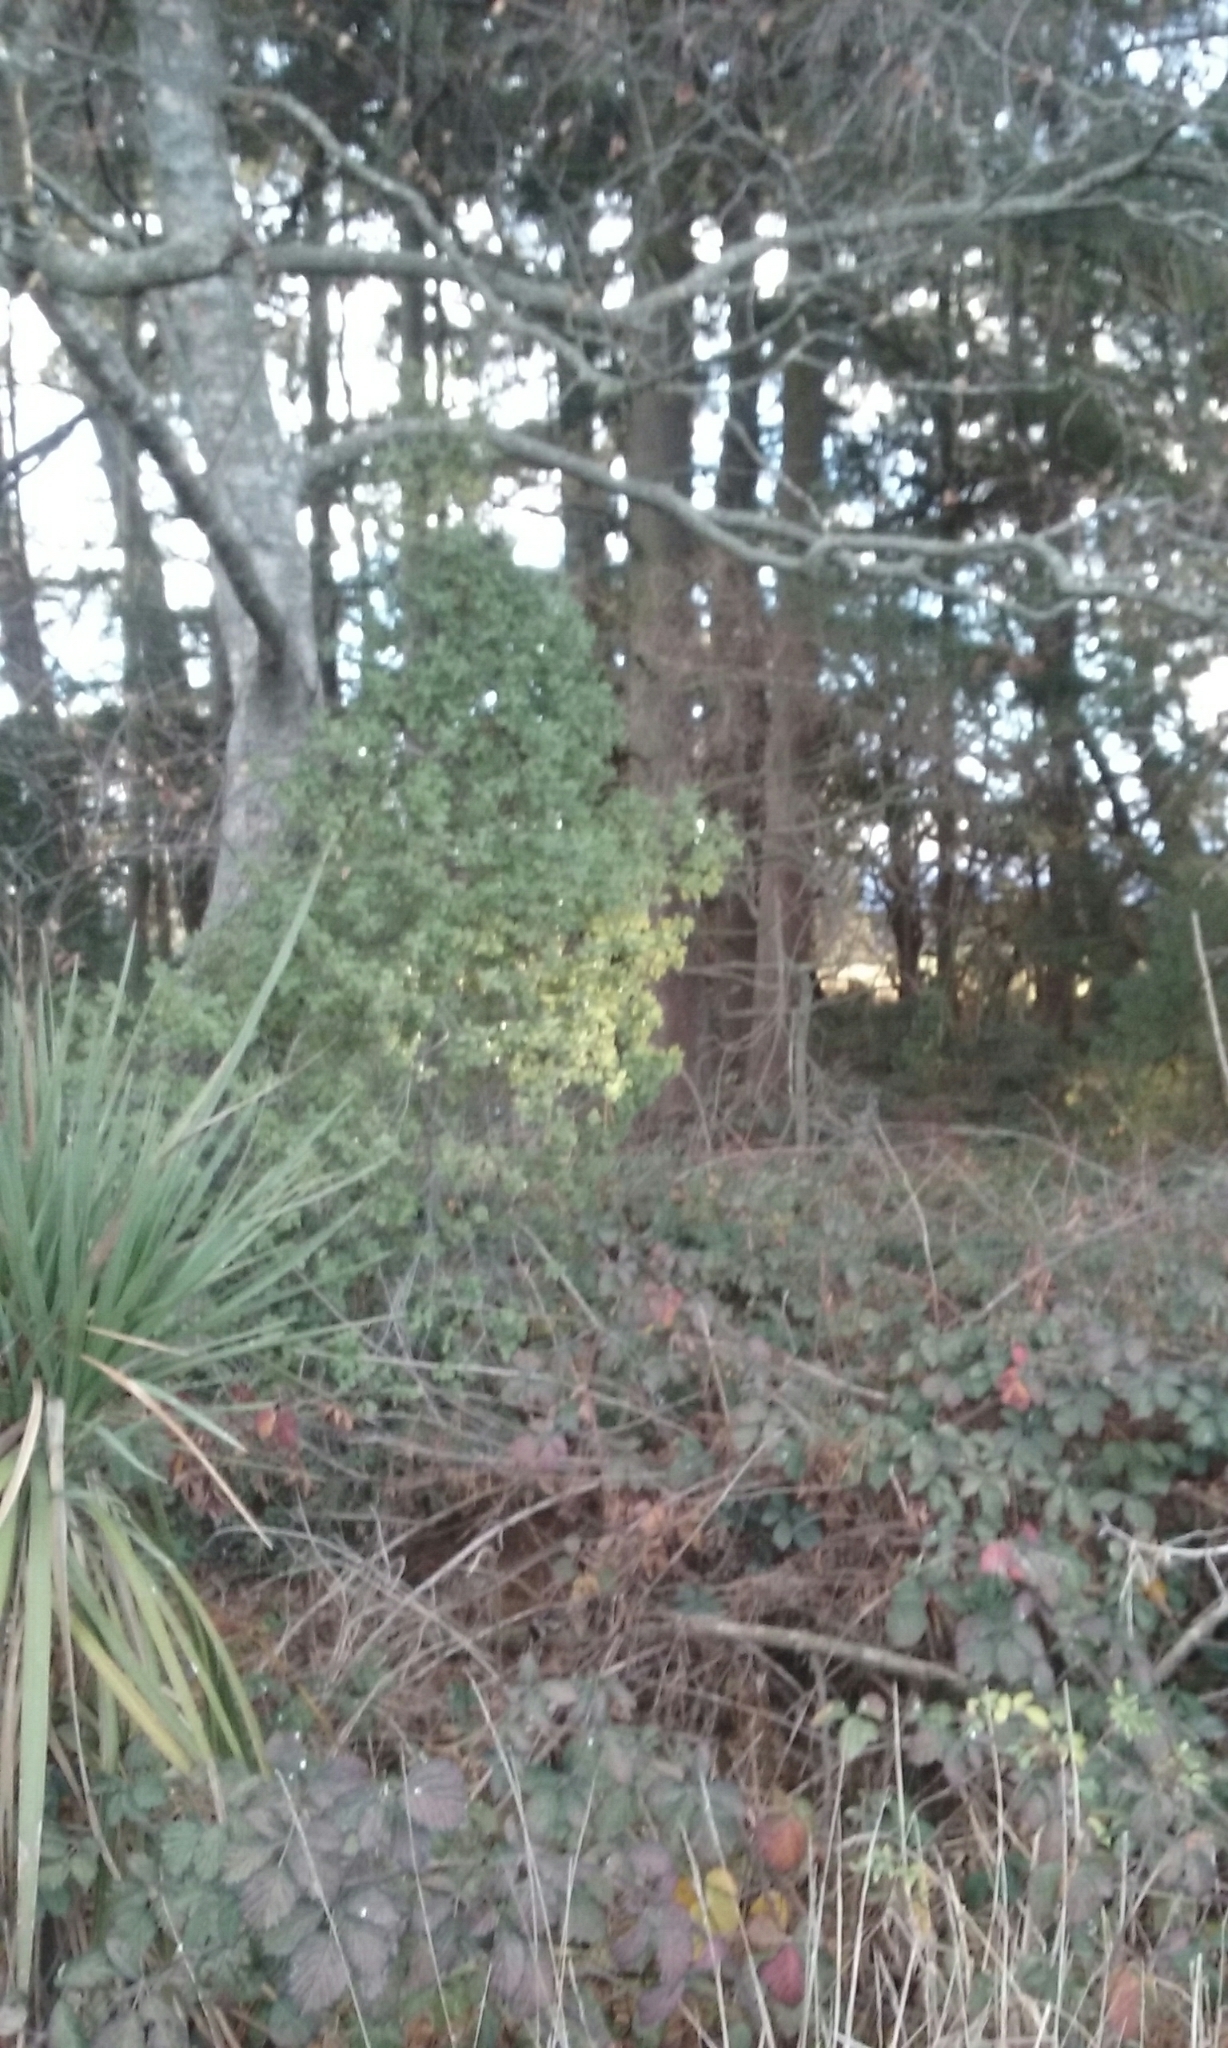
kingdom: Plantae
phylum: Tracheophyta
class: Magnoliopsida
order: Apiales
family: Pittosporaceae
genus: Pittosporum
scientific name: Pittosporum tenuifolium
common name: Kohuhu
